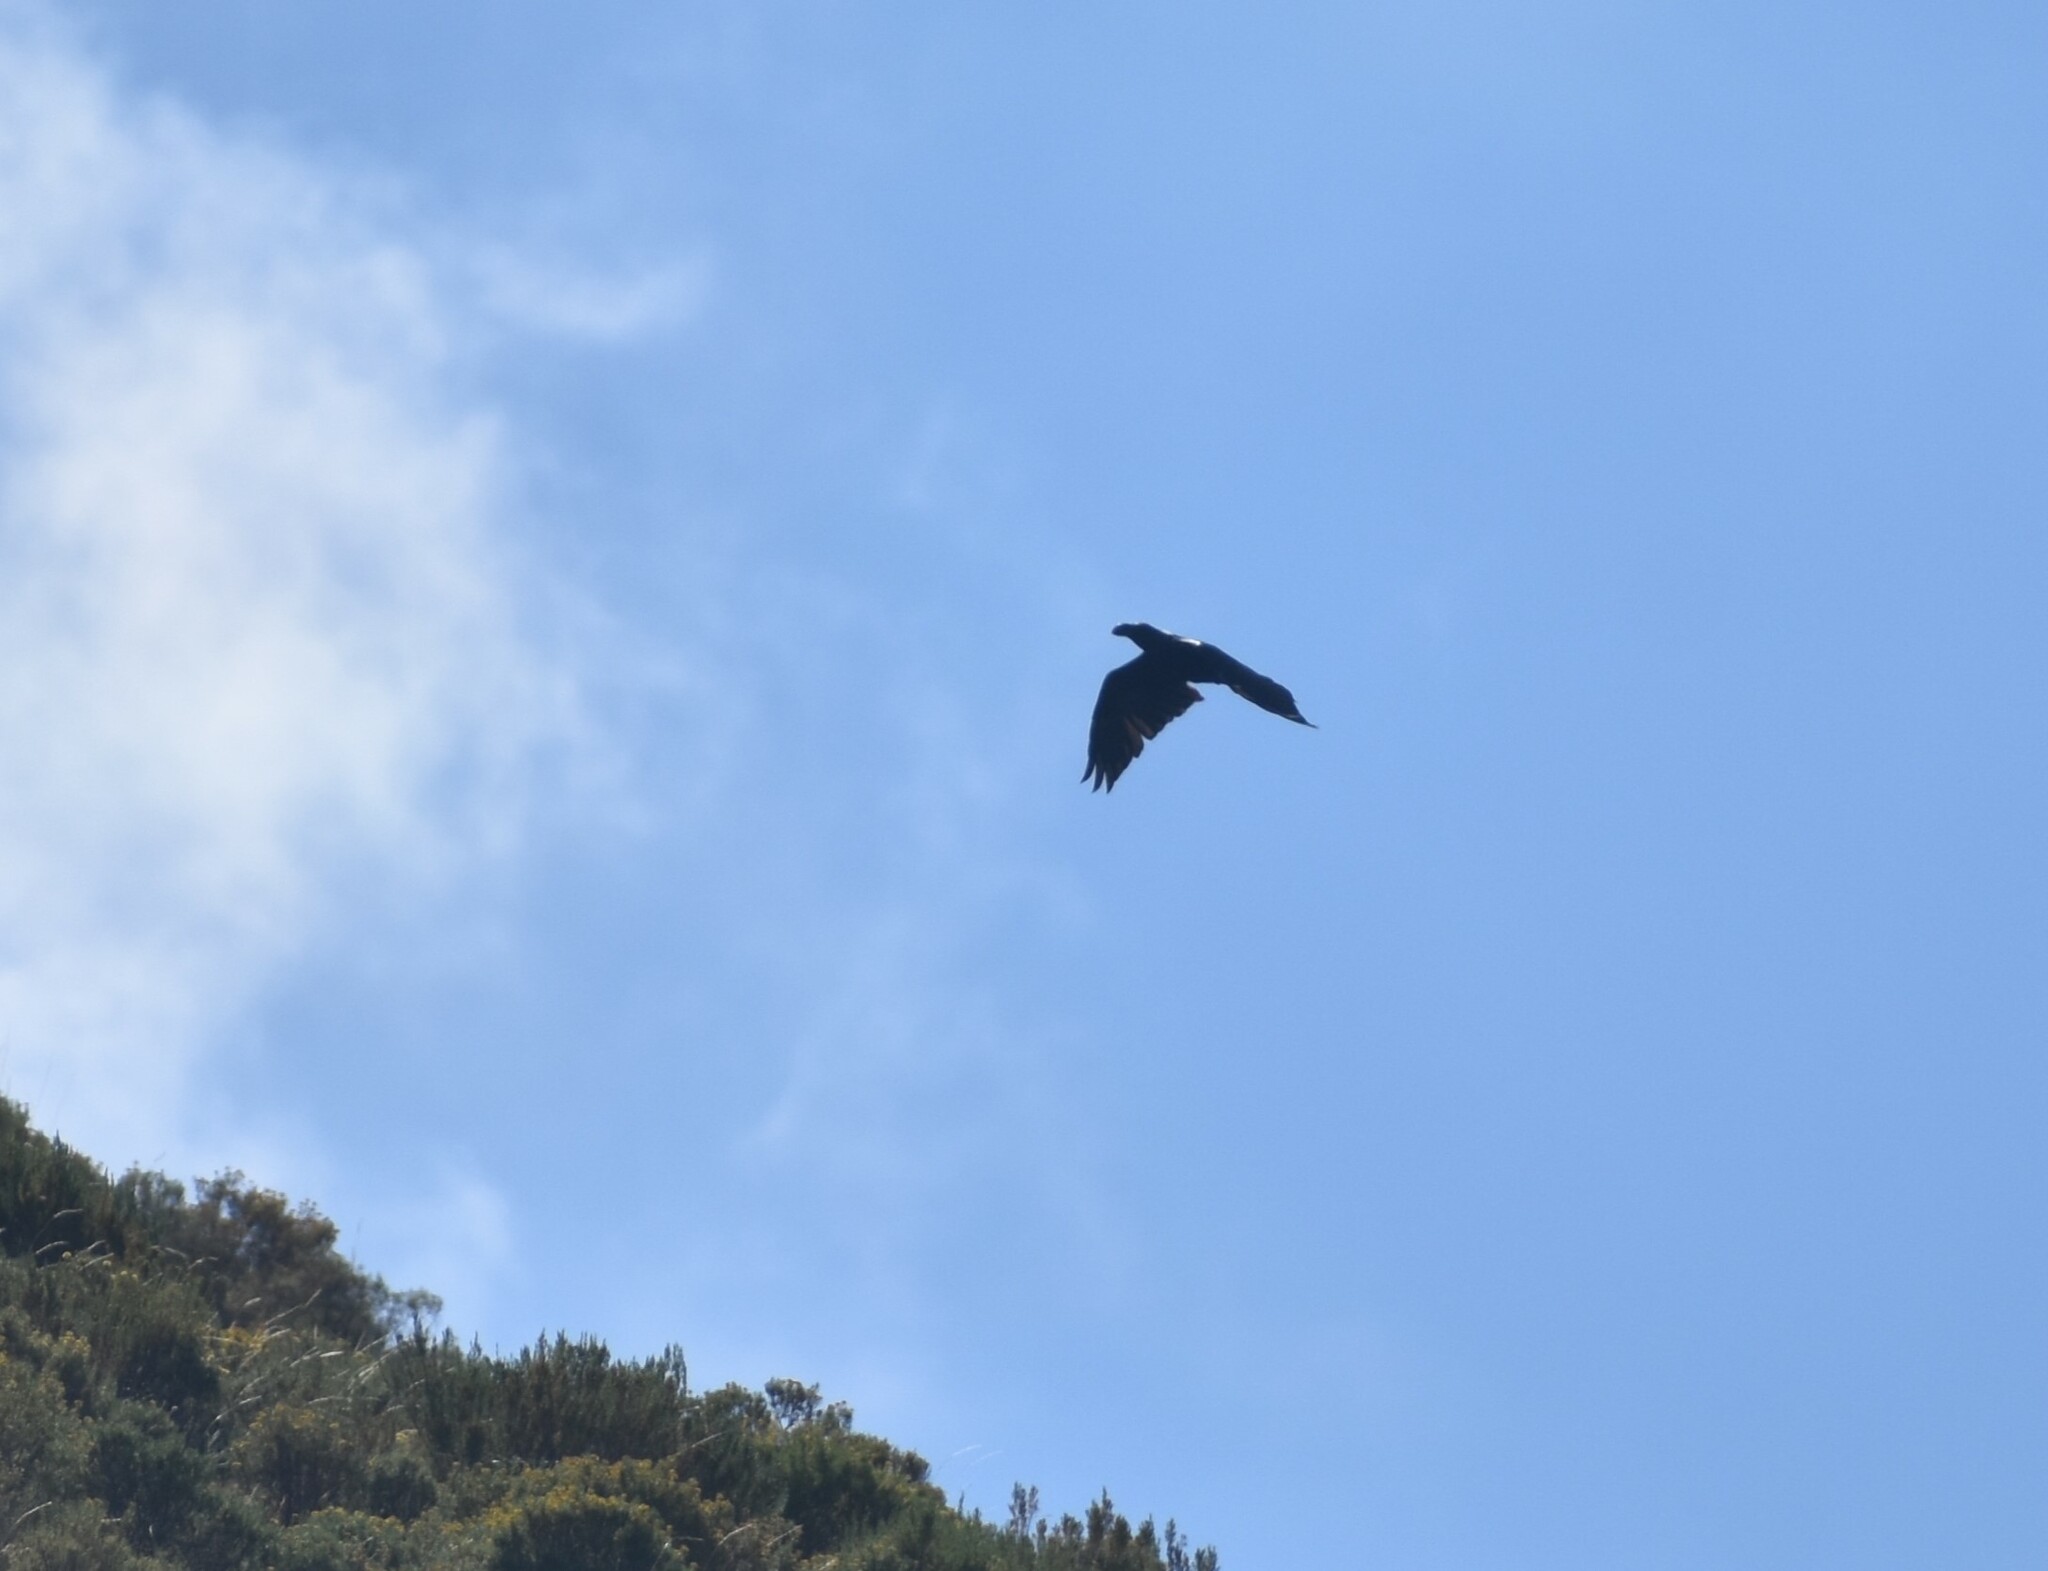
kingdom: Animalia
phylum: Chordata
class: Aves
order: Passeriformes
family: Corvidae
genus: Corvus
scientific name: Corvus albicollis
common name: White-necked raven
